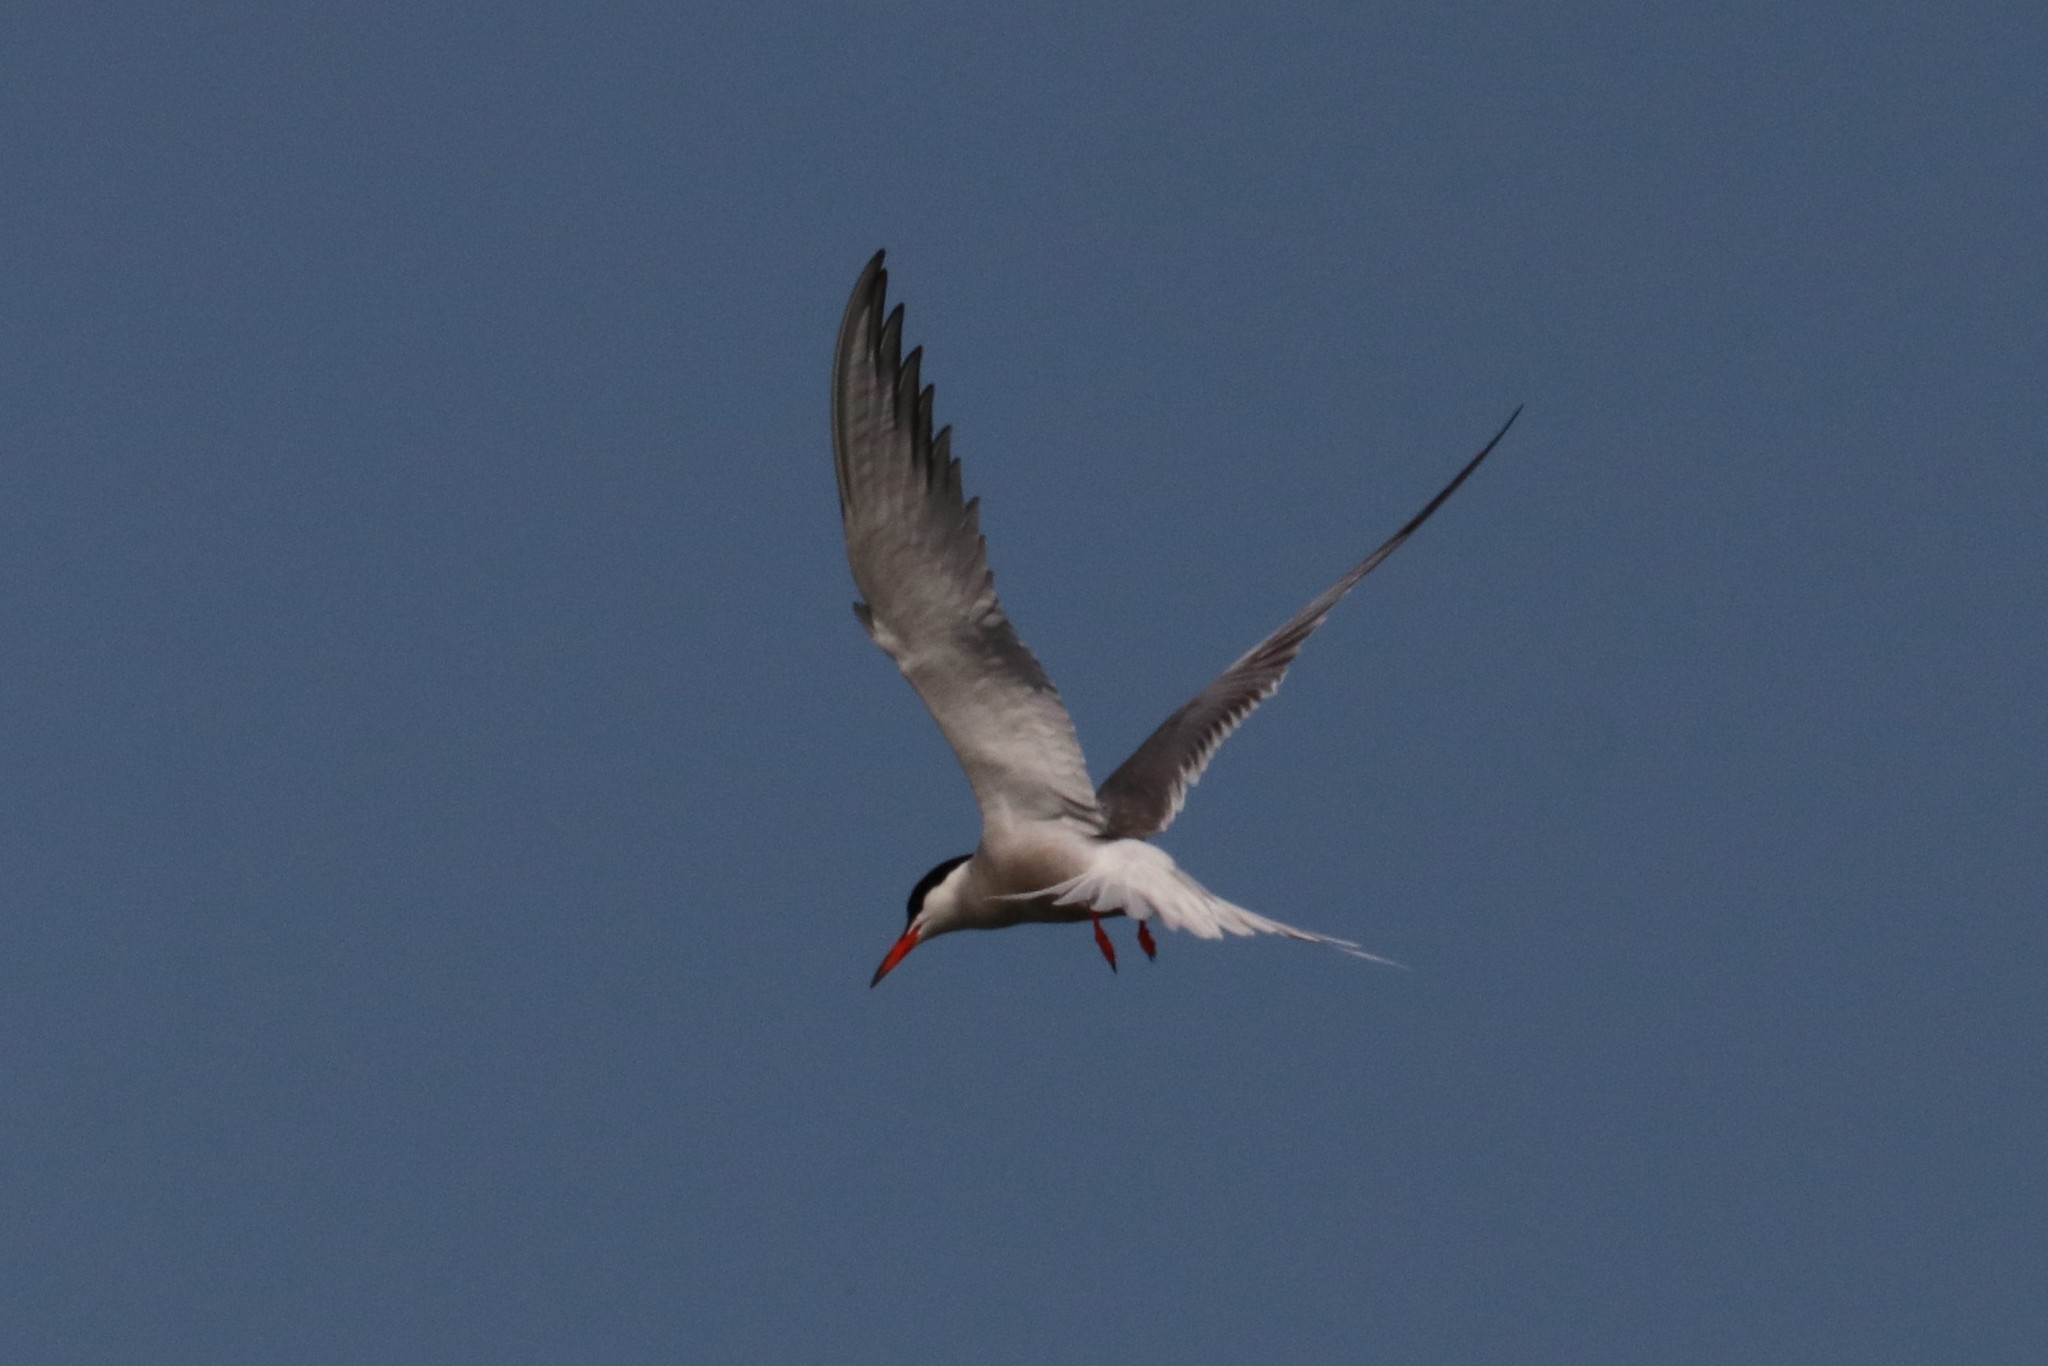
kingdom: Animalia
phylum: Chordata
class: Aves
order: Charadriiformes
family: Laridae
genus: Sterna
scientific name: Sterna hirundo
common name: Common tern
